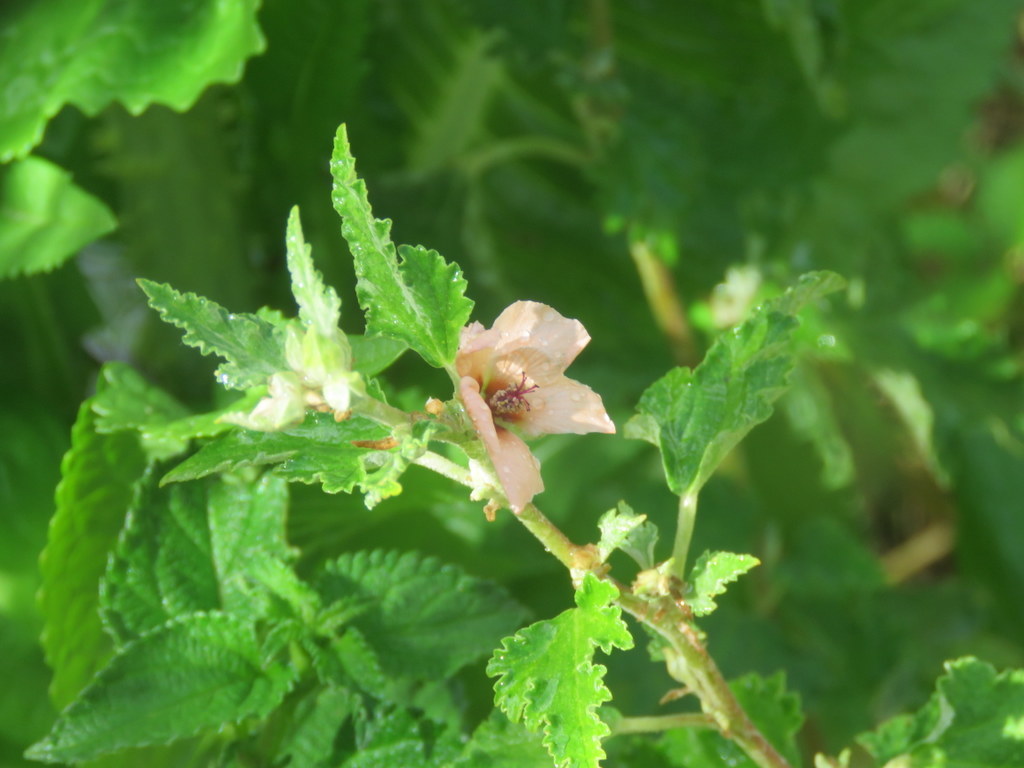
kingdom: Plantae
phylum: Tracheophyta
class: Magnoliopsida
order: Malvales
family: Malvaceae
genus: Sphaeralcea
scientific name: Sphaeralcea bonariensis
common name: Latin globemallow
